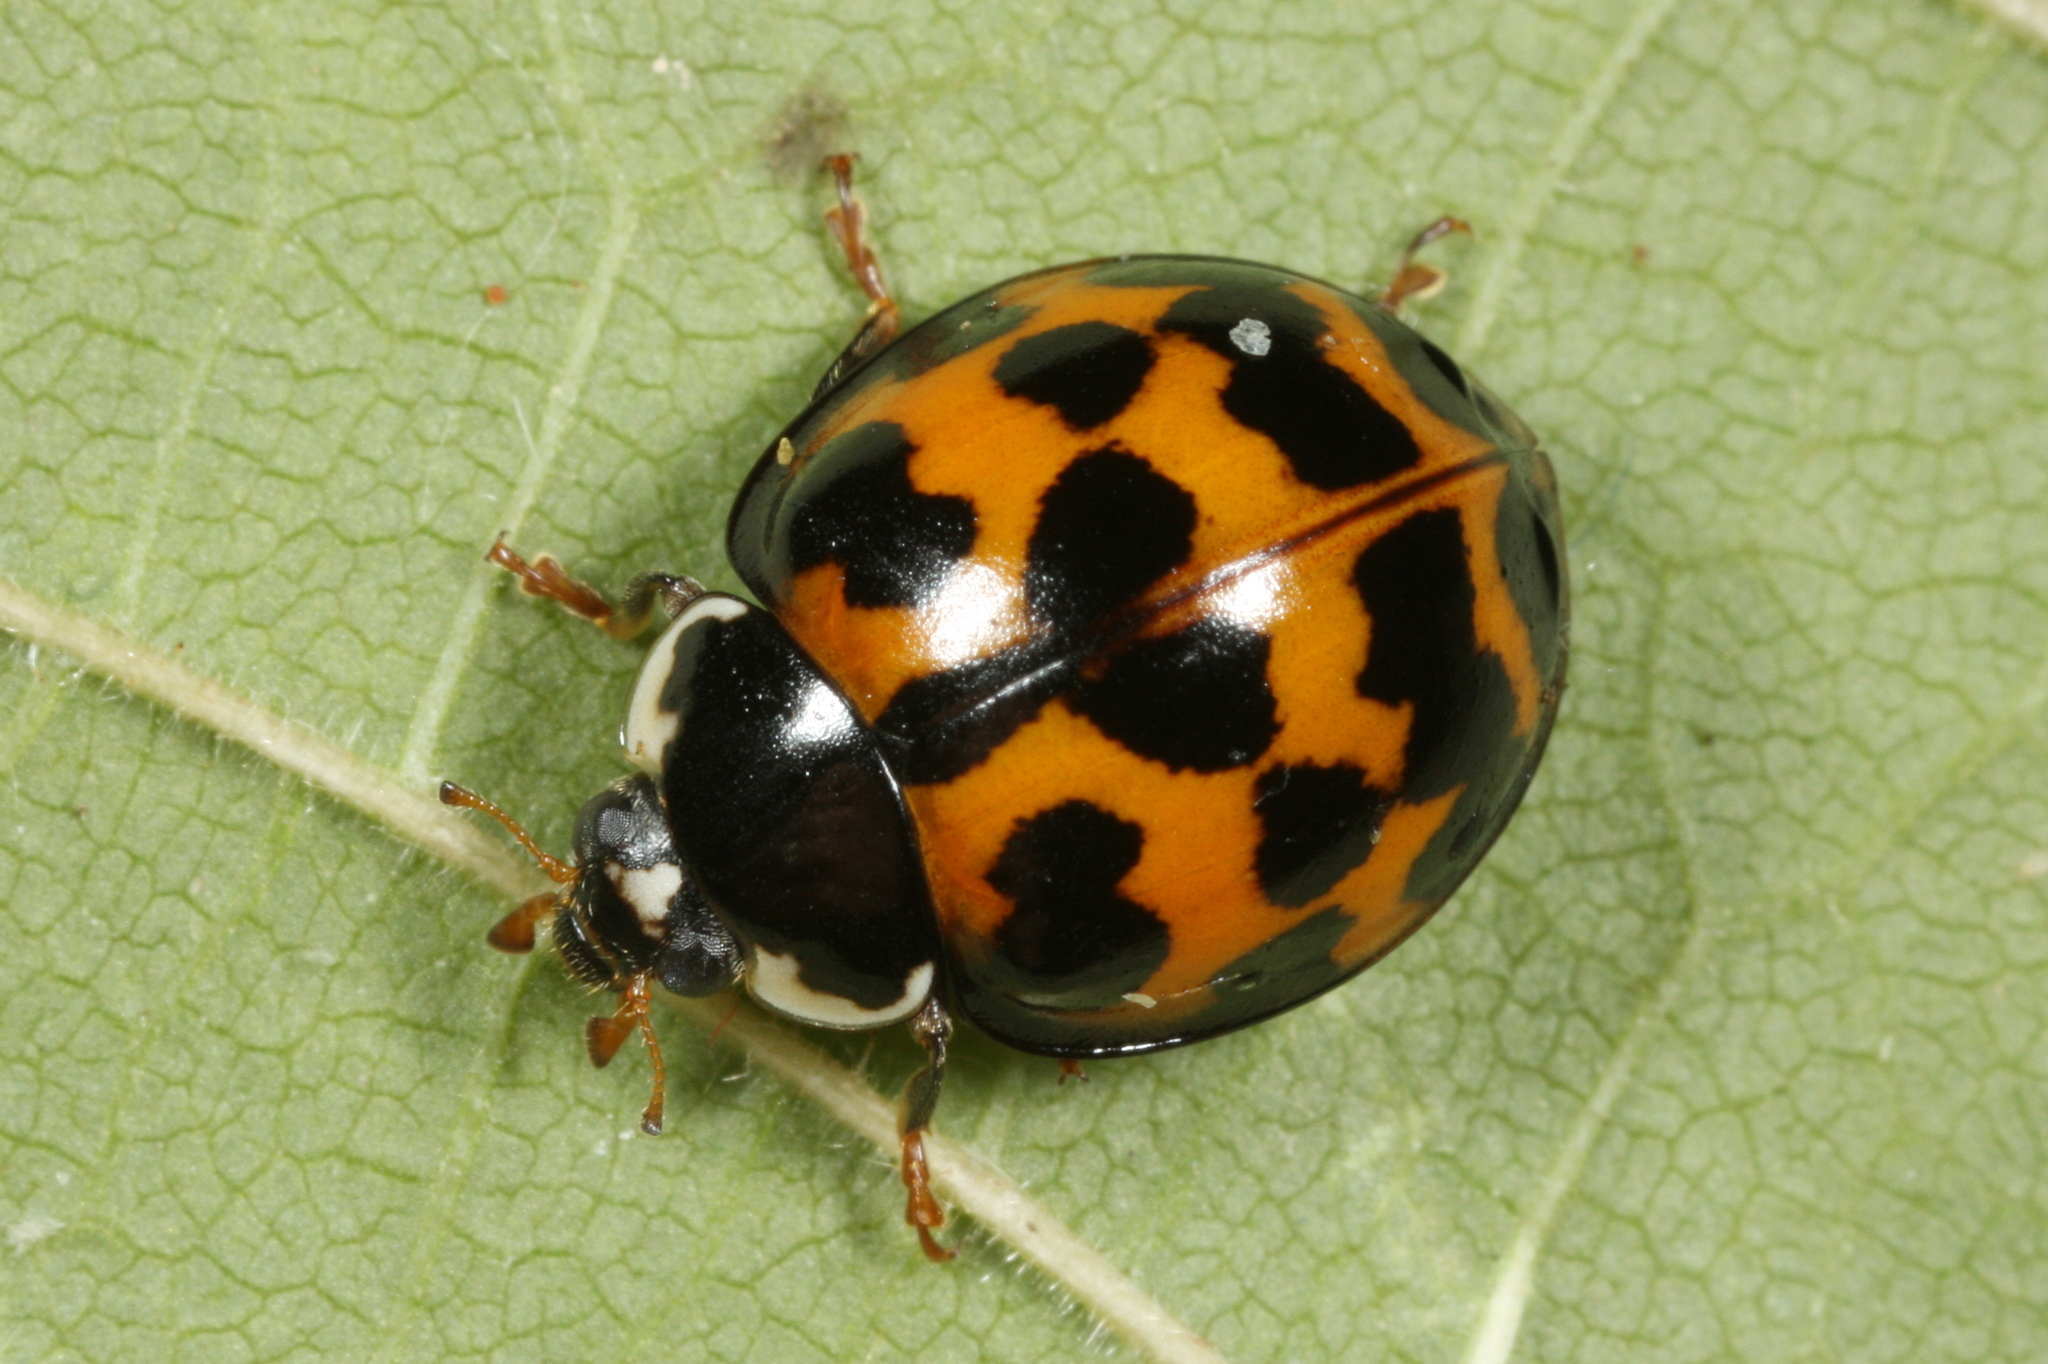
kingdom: Animalia
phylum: Arthropoda
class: Insecta
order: Coleoptera
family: Coccinellidae
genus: Harmonia
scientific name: Harmonia axyridis
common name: Harlequin ladybird
